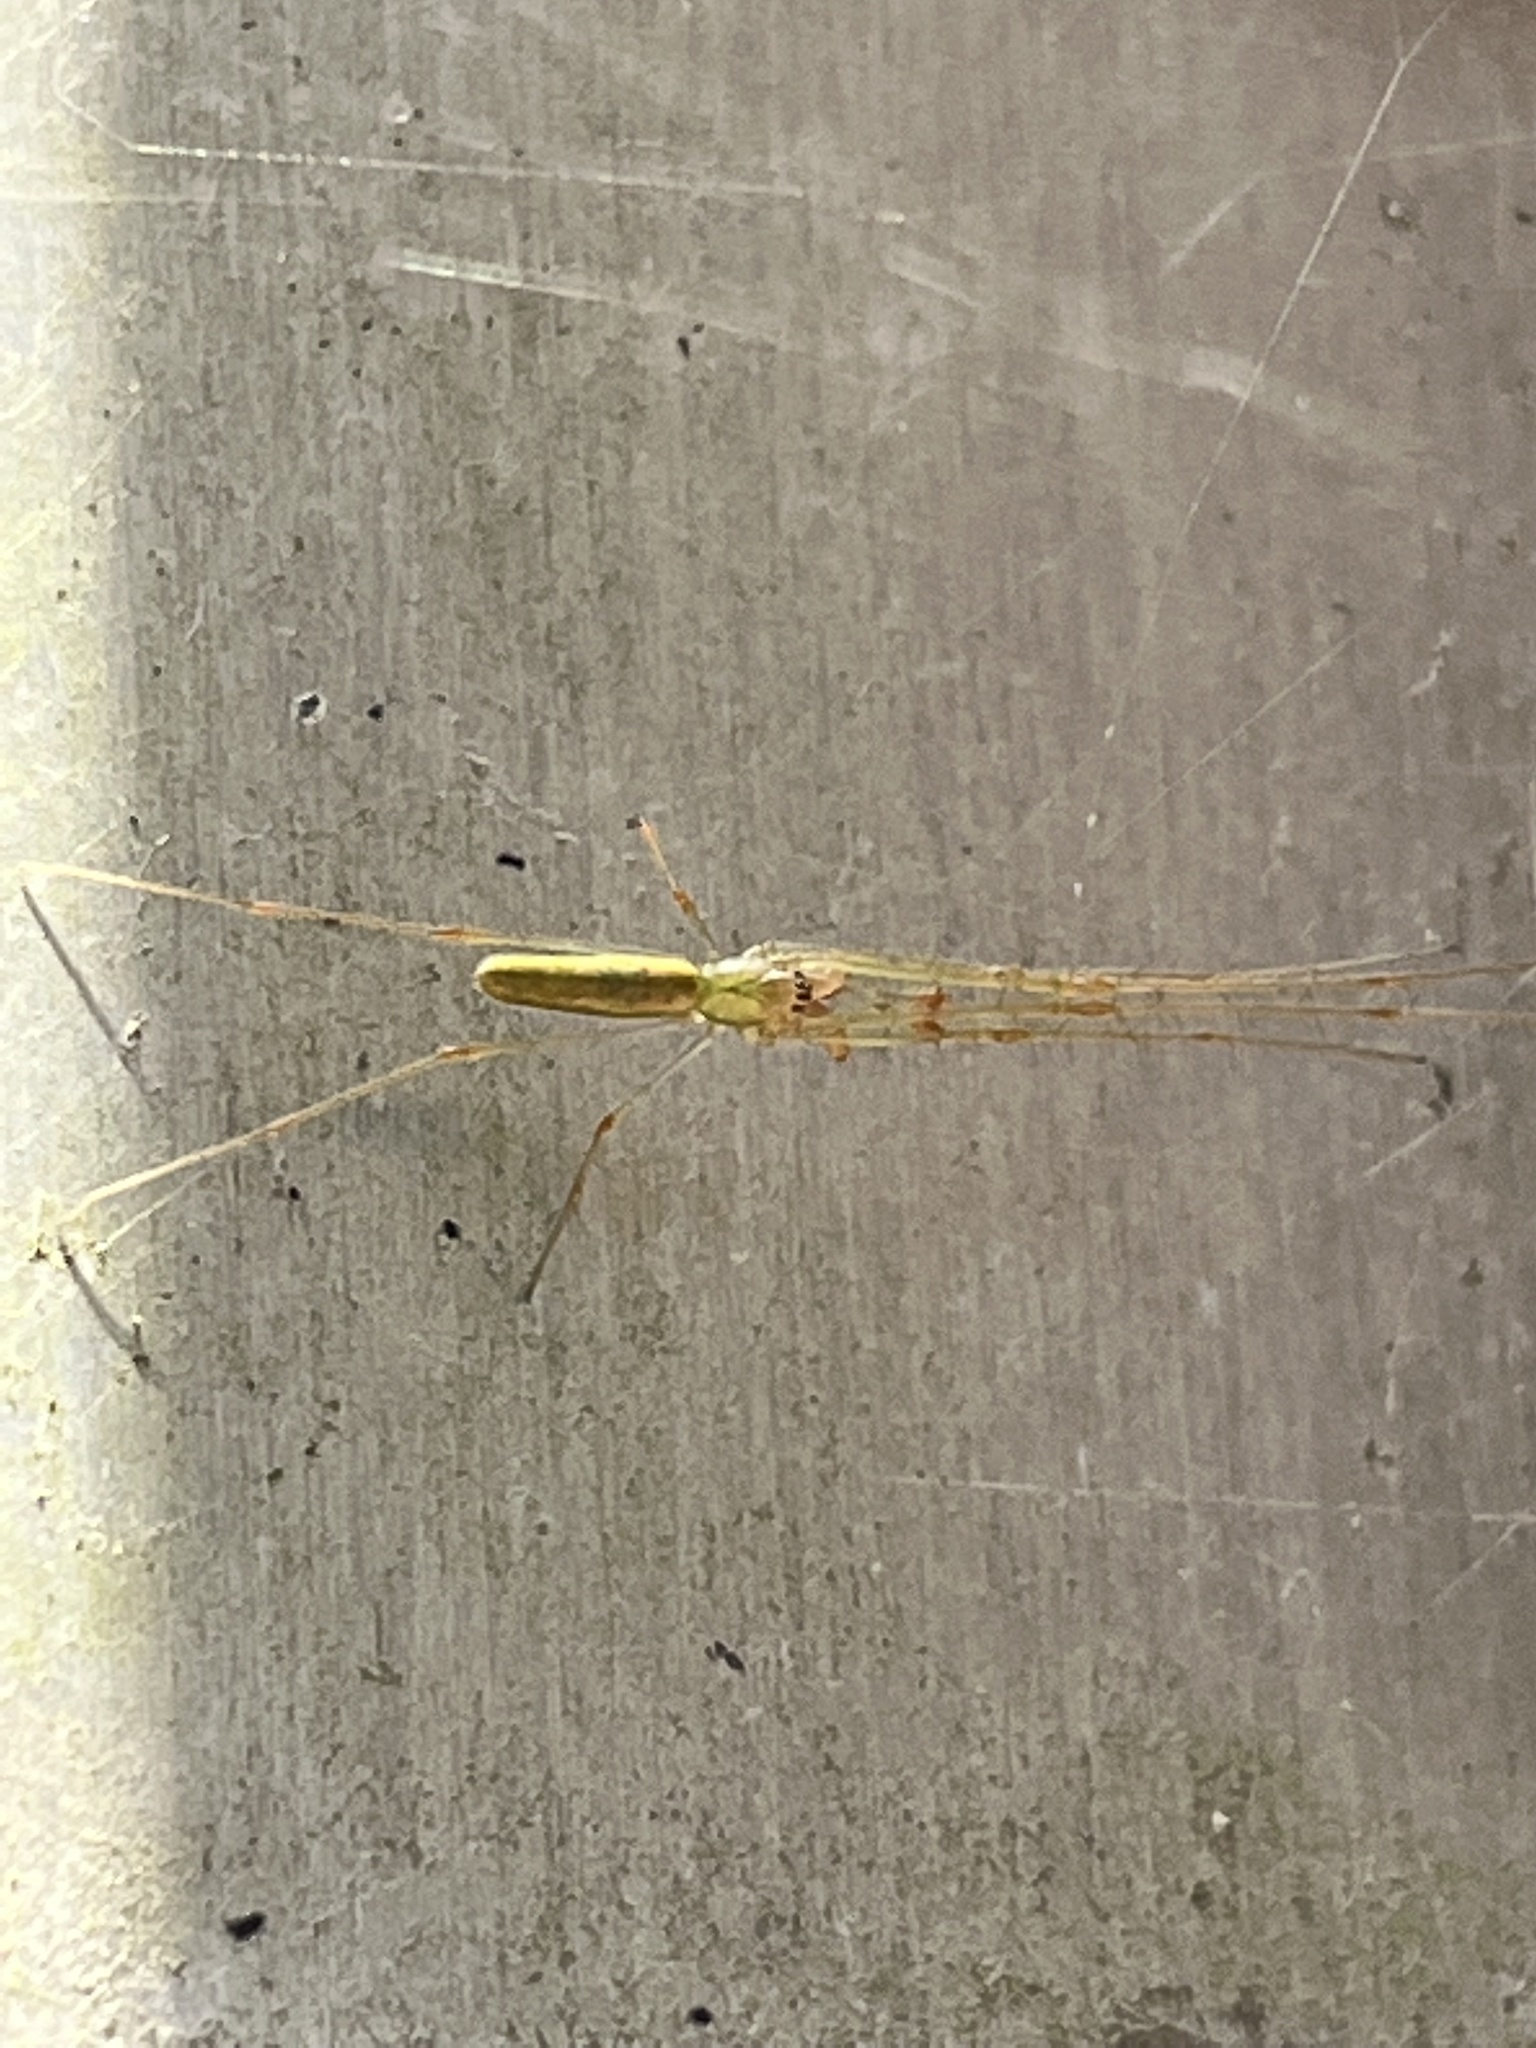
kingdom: Animalia
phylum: Arthropoda
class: Arachnida
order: Araneae
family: Tetragnathidae
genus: Tetragnatha
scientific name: Tetragnatha
